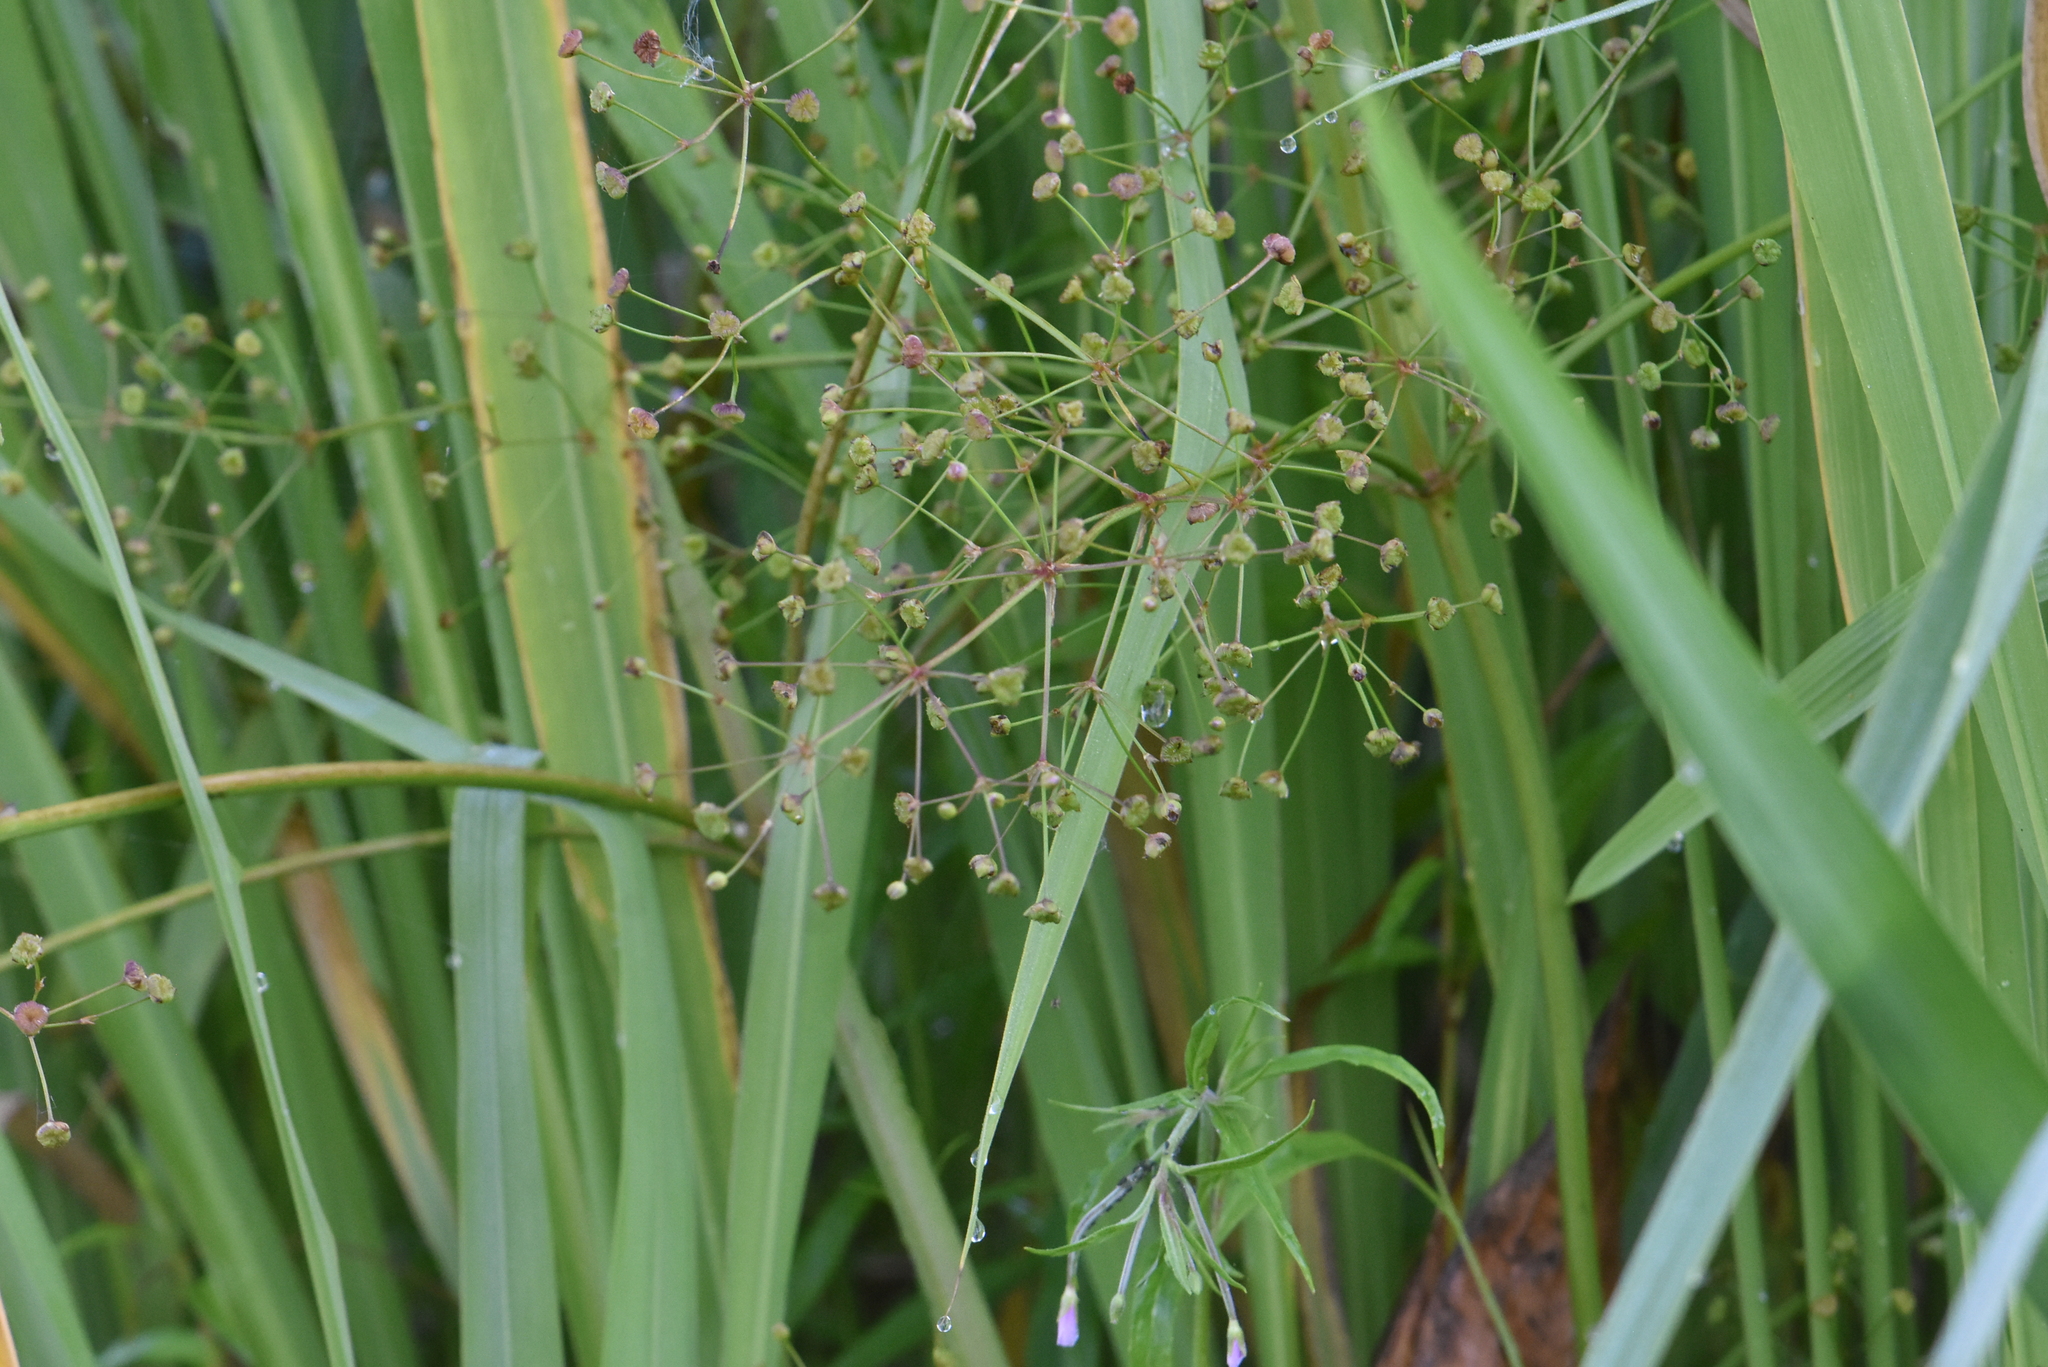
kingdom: Plantae
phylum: Tracheophyta
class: Liliopsida
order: Alismatales
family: Alismataceae
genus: Alisma
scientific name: Alisma plantago-aquatica
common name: Water-plantain
